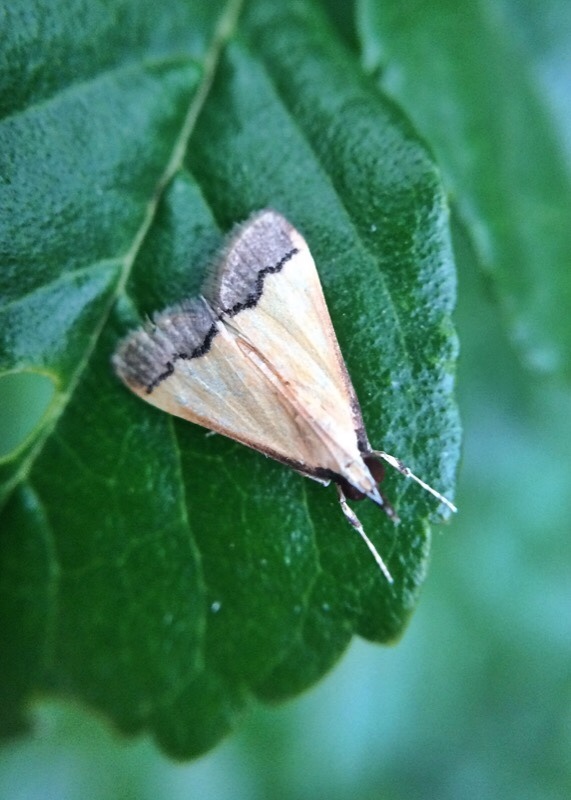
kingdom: Animalia
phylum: Arthropoda
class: Insecta
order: Lepidoptera
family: Crambidae
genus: Autocharis
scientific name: Autocharis fessalis
